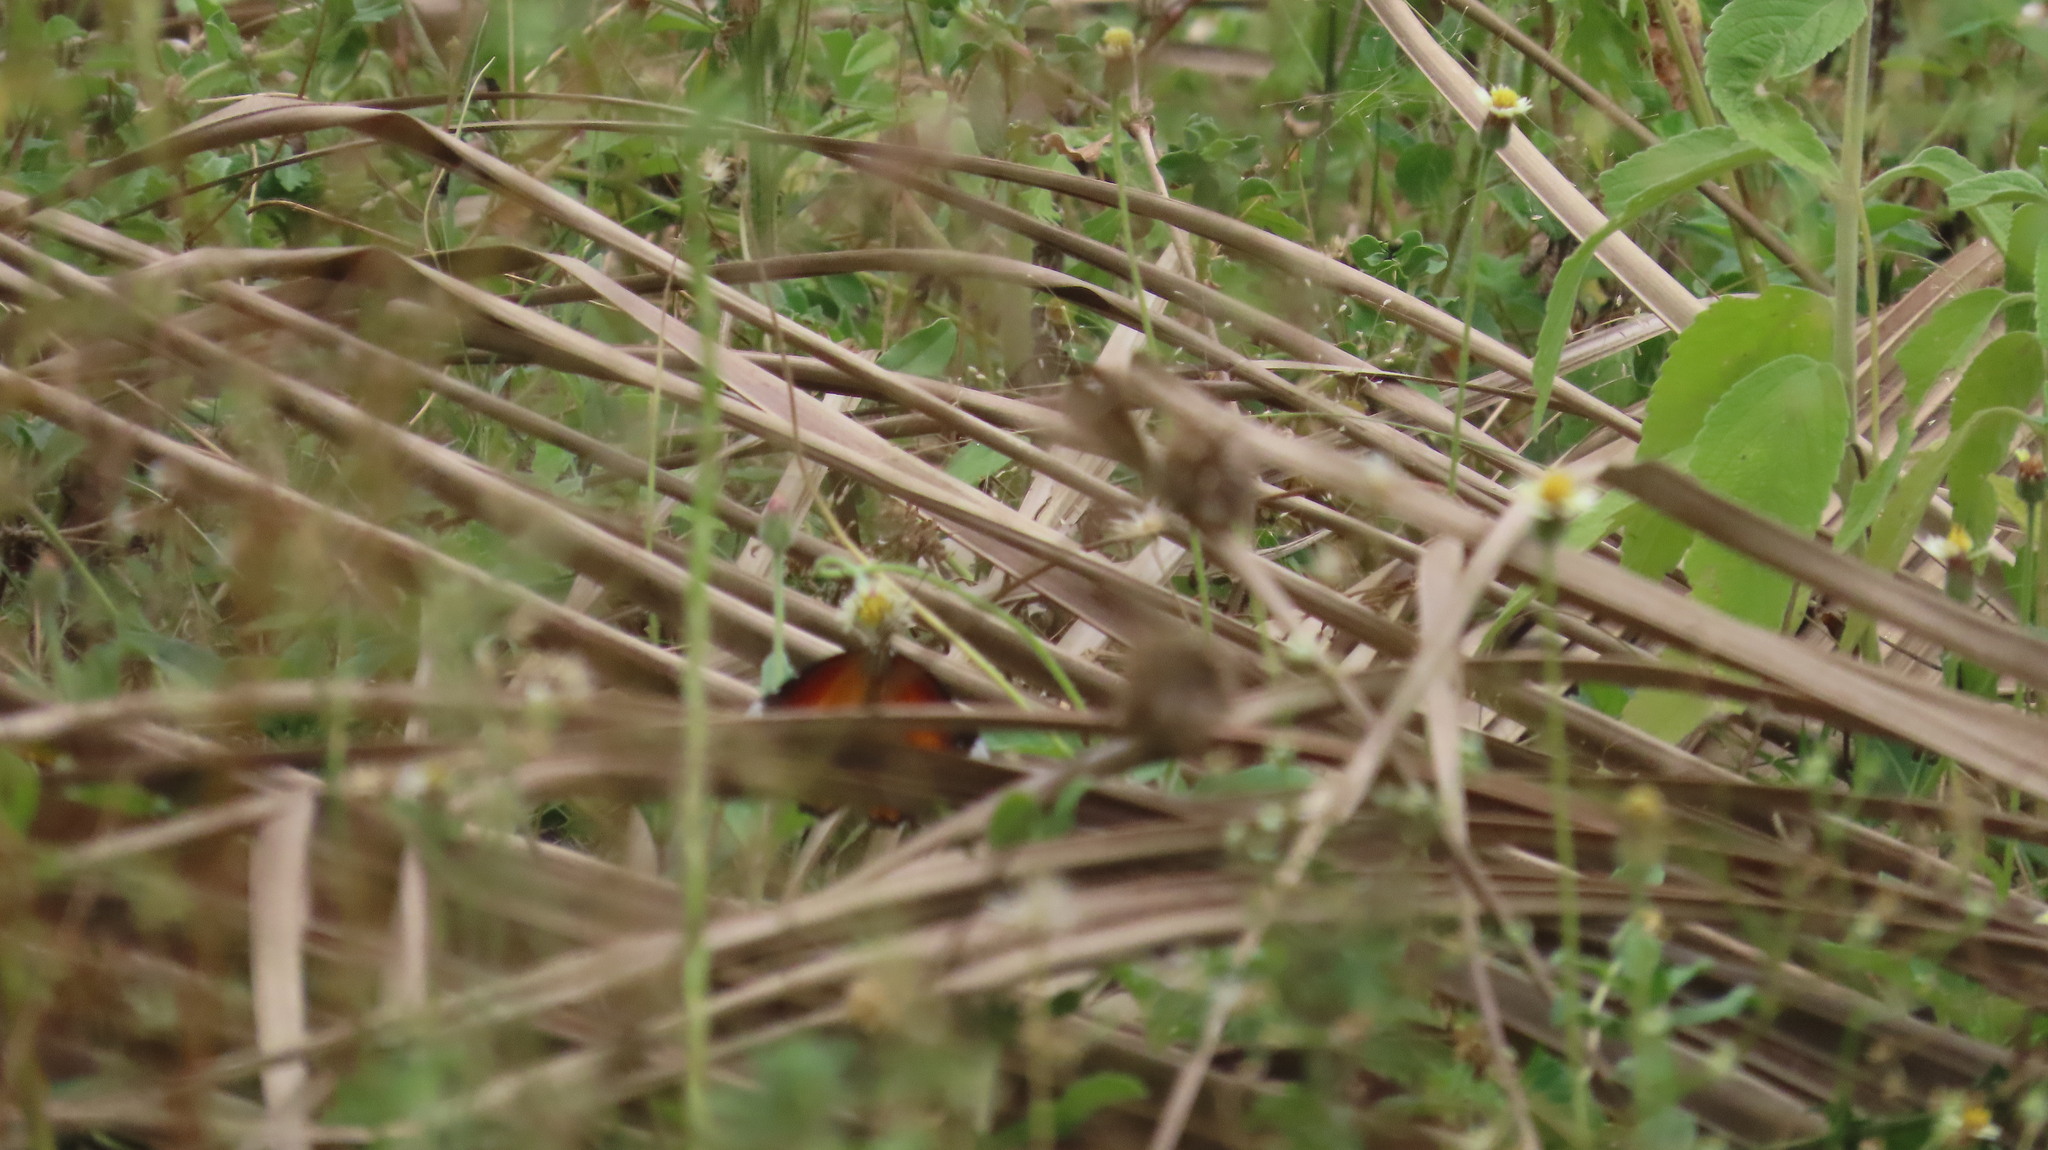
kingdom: Animalia
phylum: Arthropoda
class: Insecta
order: Lepidoptera
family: Nymphalidae
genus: Danaus
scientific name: Danaus chrysippus
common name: Plain tiger
